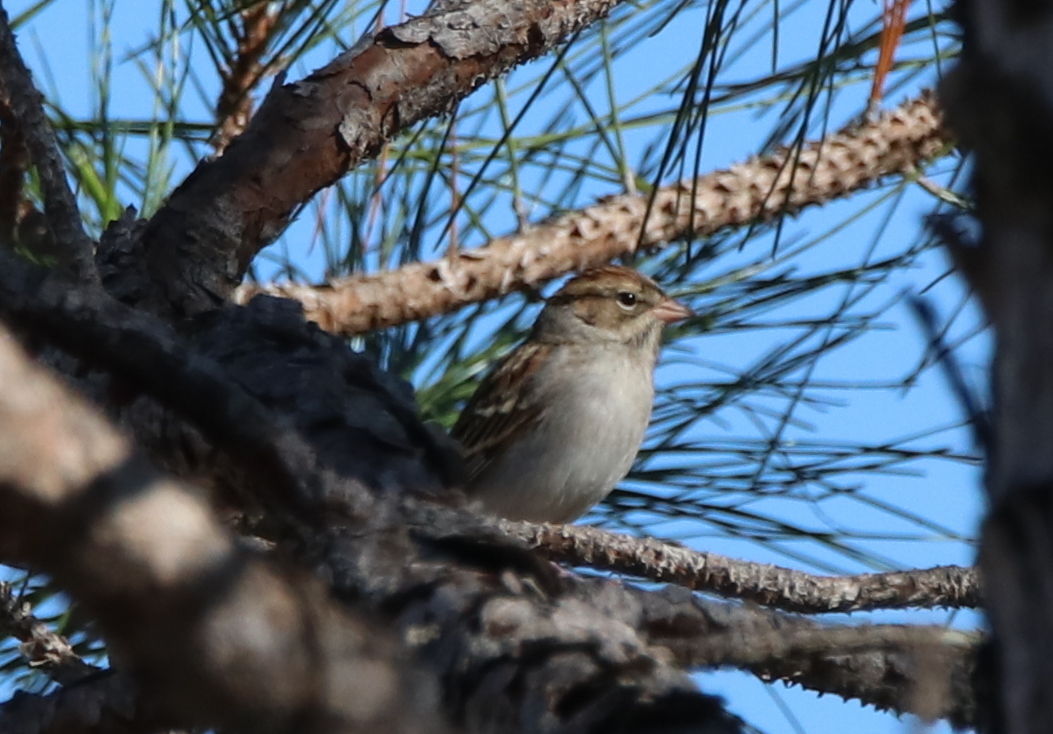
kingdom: Animalia
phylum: Chordata
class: Aves
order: Passeriformes
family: Passerellidae
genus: Spizella
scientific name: Spizella passerina
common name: Chipping sparrow
